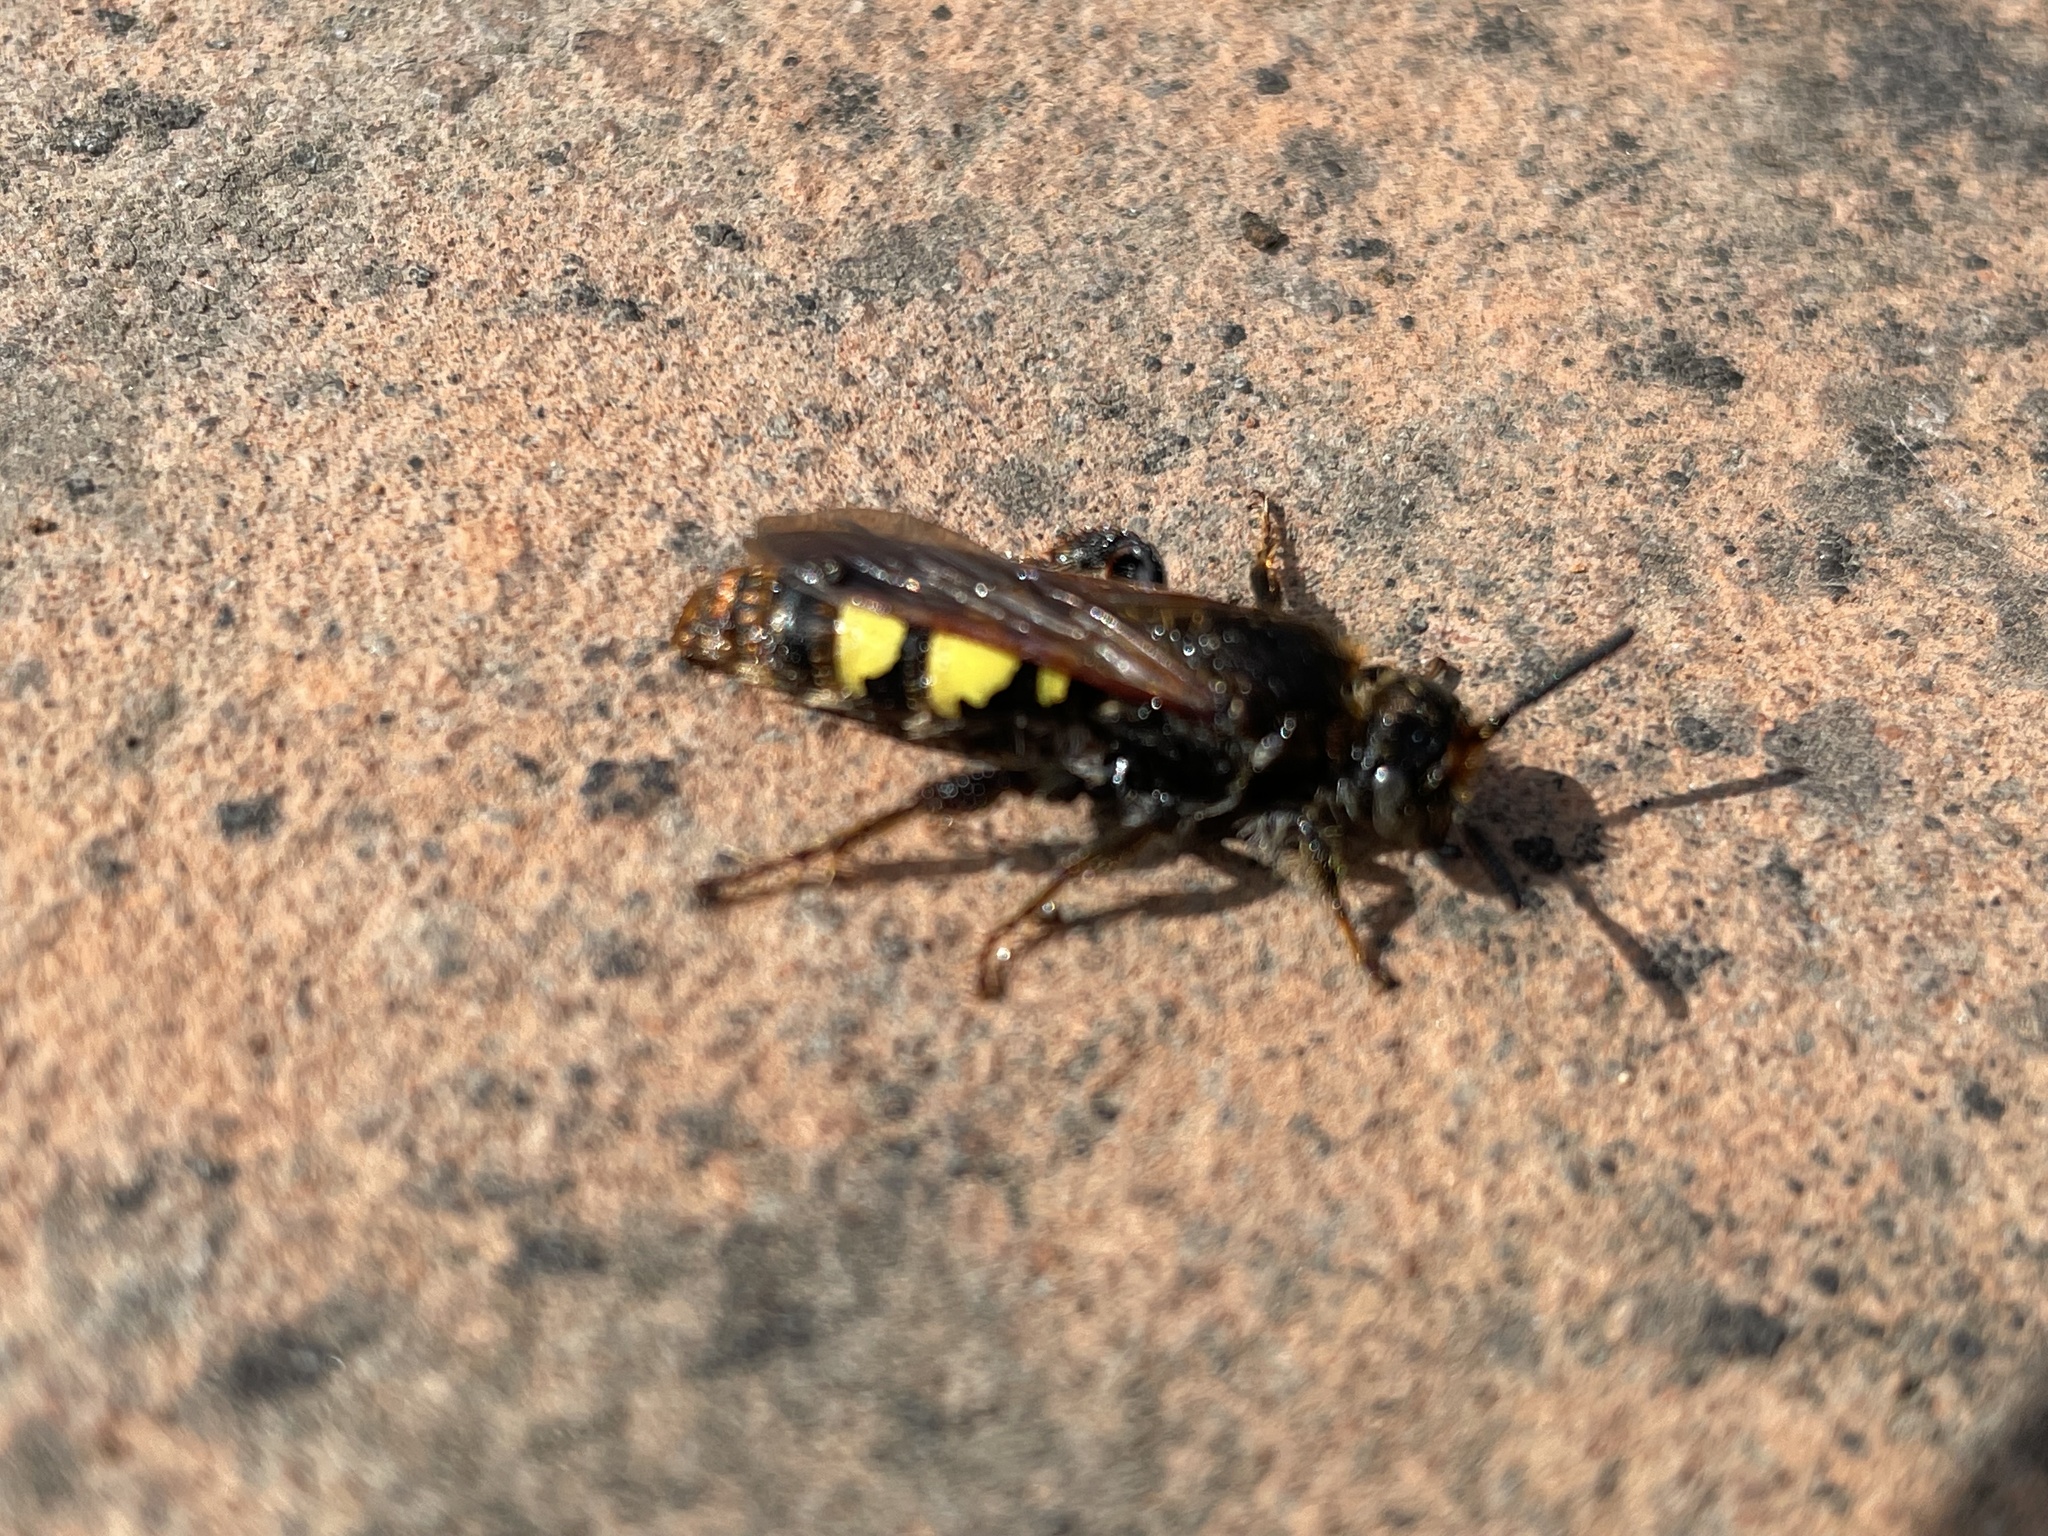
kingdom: Animalia
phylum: Arthropoda
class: Insecta
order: Hymenoptera
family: Scoliidae
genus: Xantocampsomeris
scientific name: Xantocampsomeris limosa
